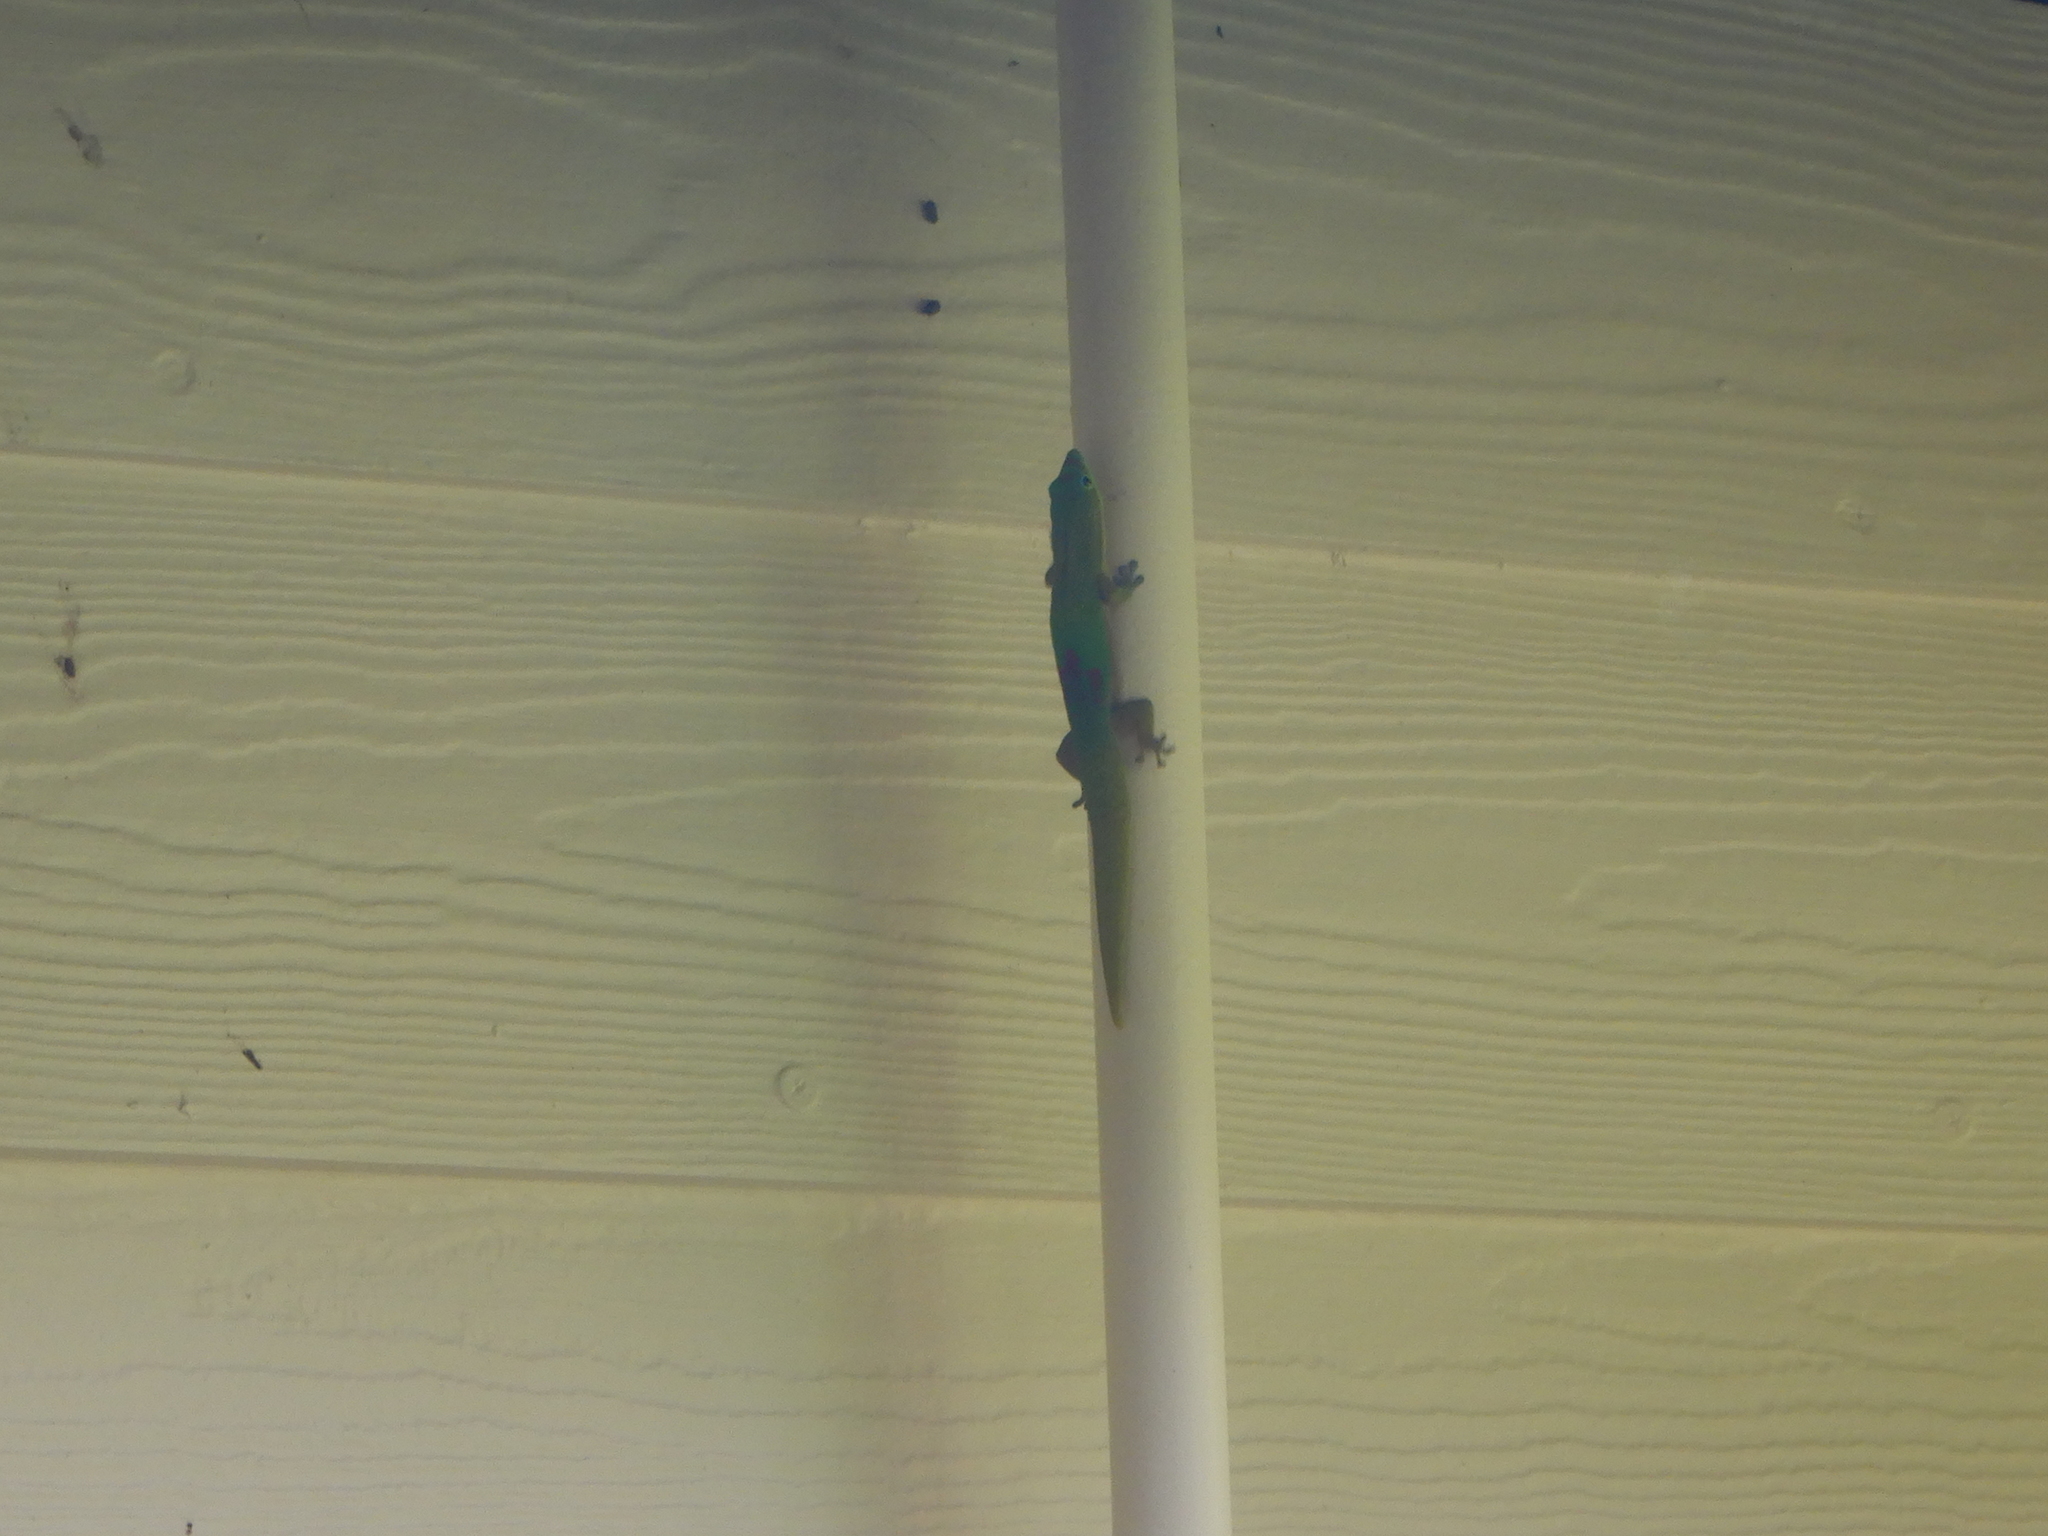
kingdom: Animalia
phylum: Chordata
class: Squamata
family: Gekkonidae
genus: Phelsuma
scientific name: Phelsuma laticauda
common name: Gold dust day gecko
